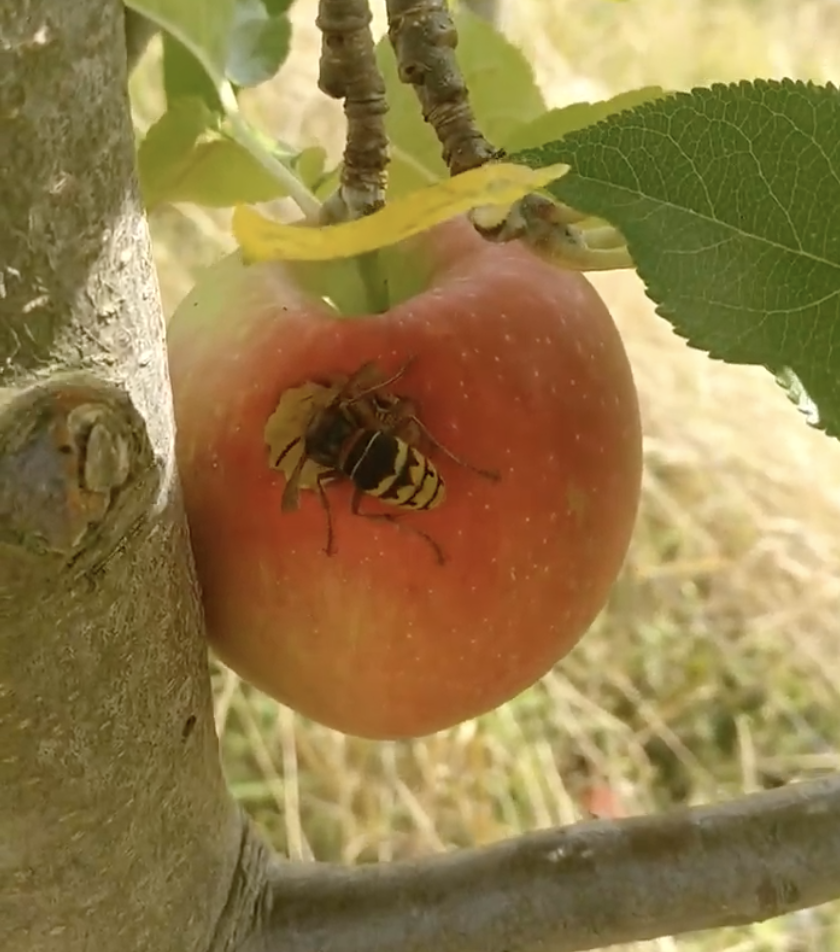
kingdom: Animalia
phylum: Arthropoda
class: Insecta
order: Hymenoptera
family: Vespidae
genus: Vespa
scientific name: Vespa crabro
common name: Hornet
